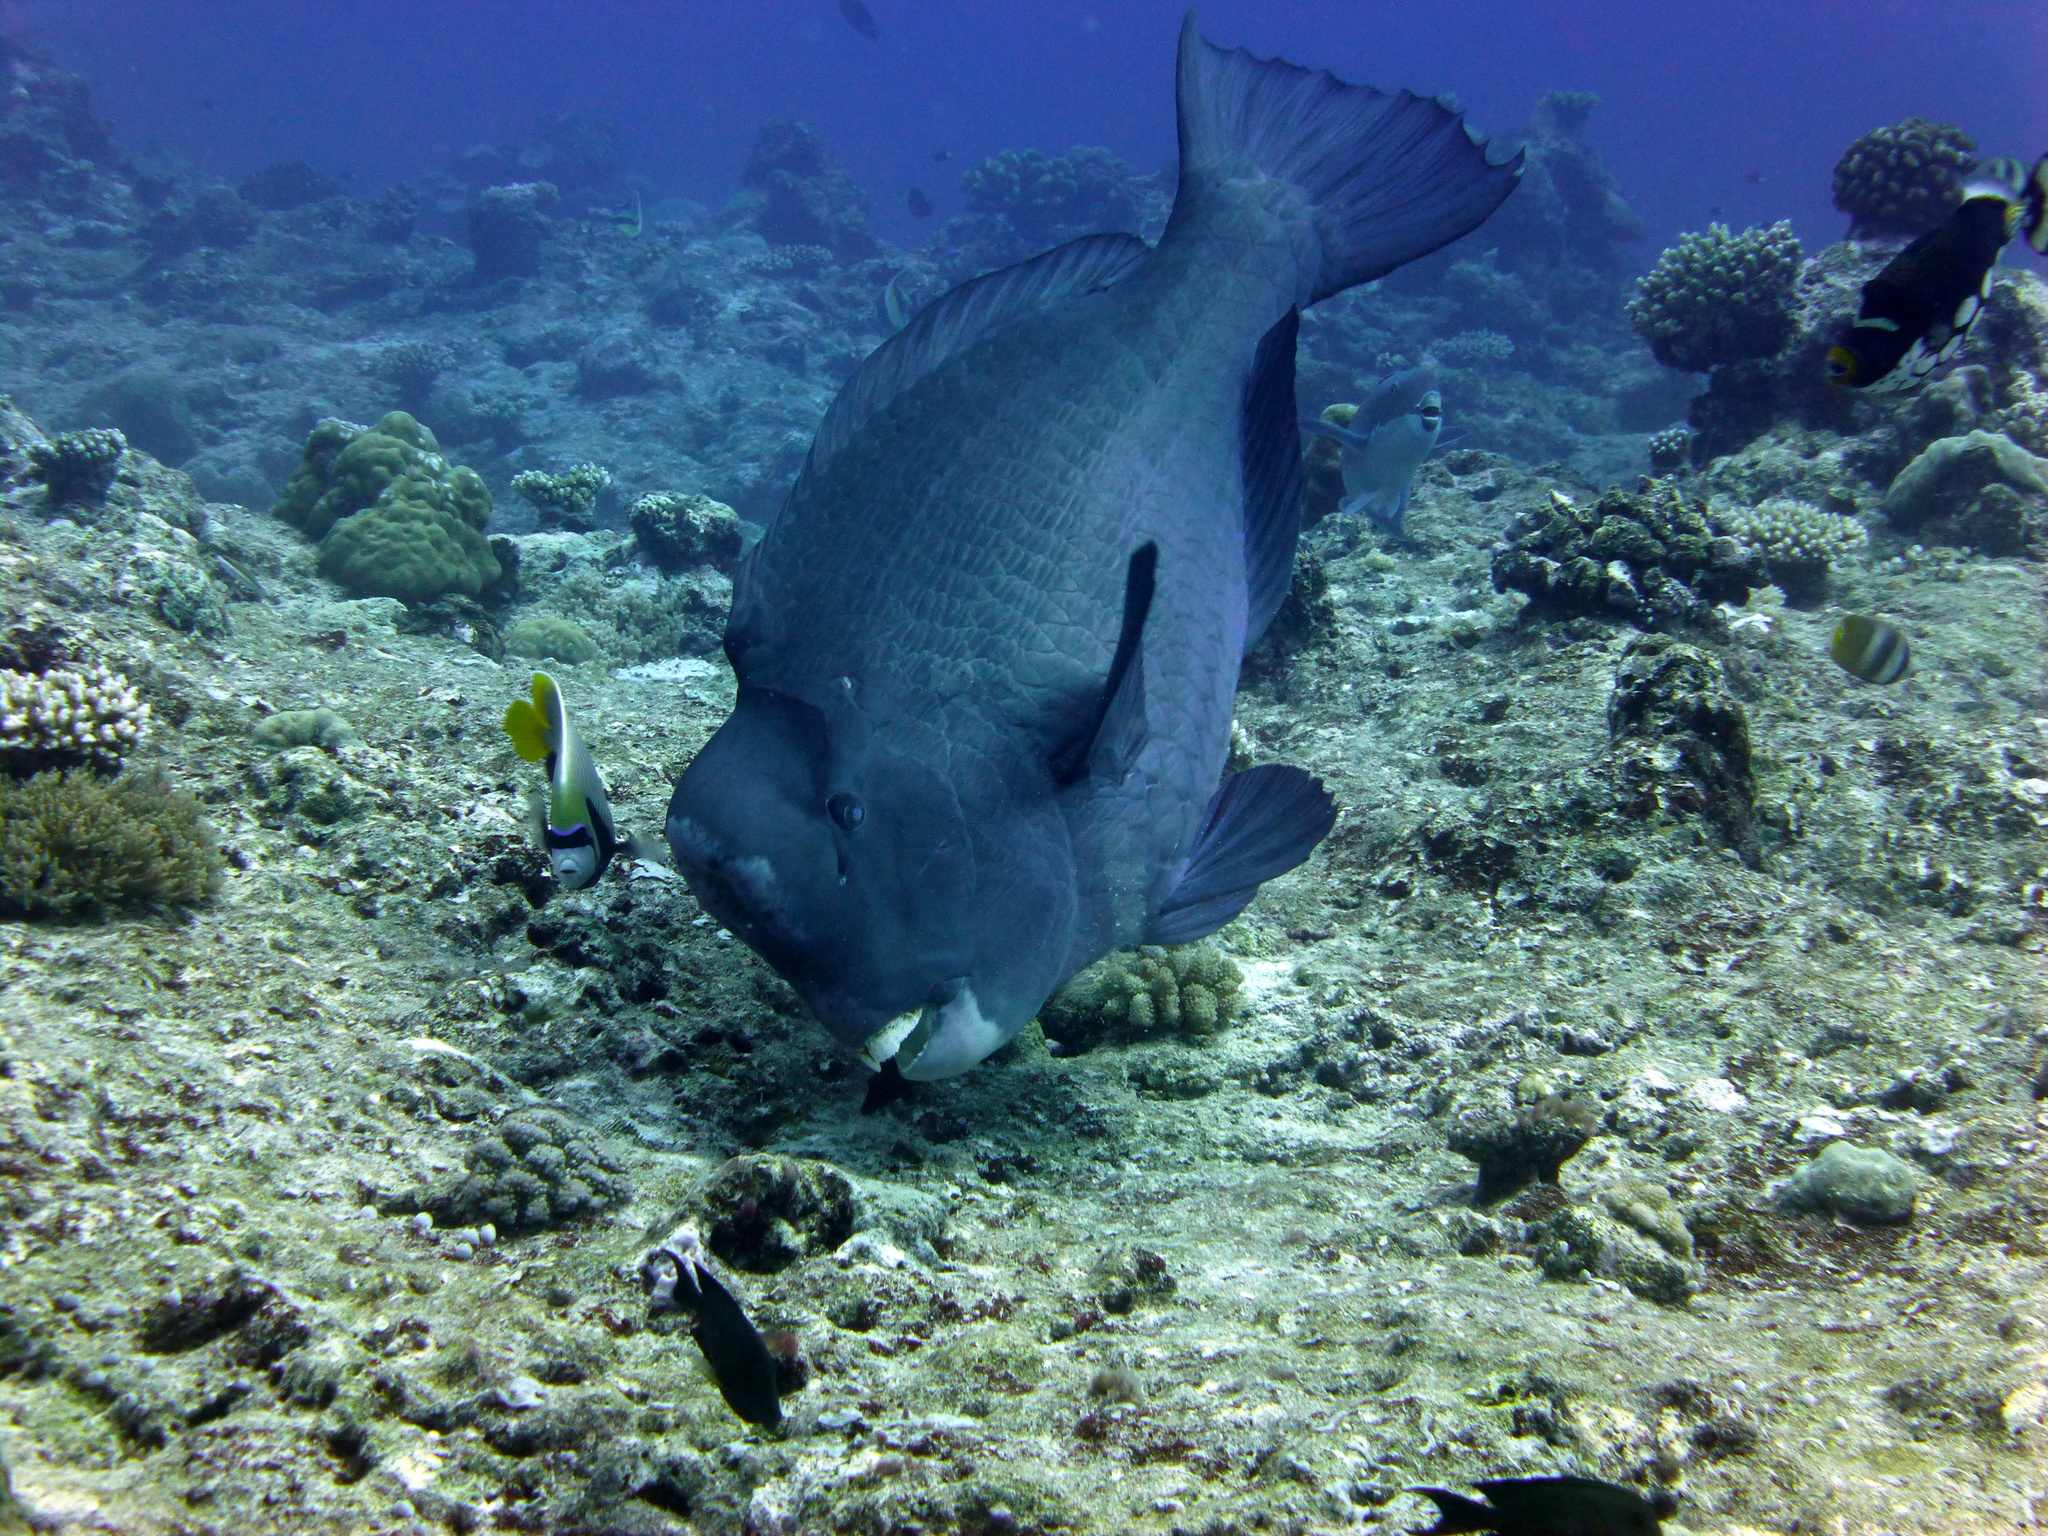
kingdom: Animalia
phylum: Chordata
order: Perciformes
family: Scaridae
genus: Bolbometopon
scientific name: Bolbometopon muricatum
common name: Humphead parrotfish
